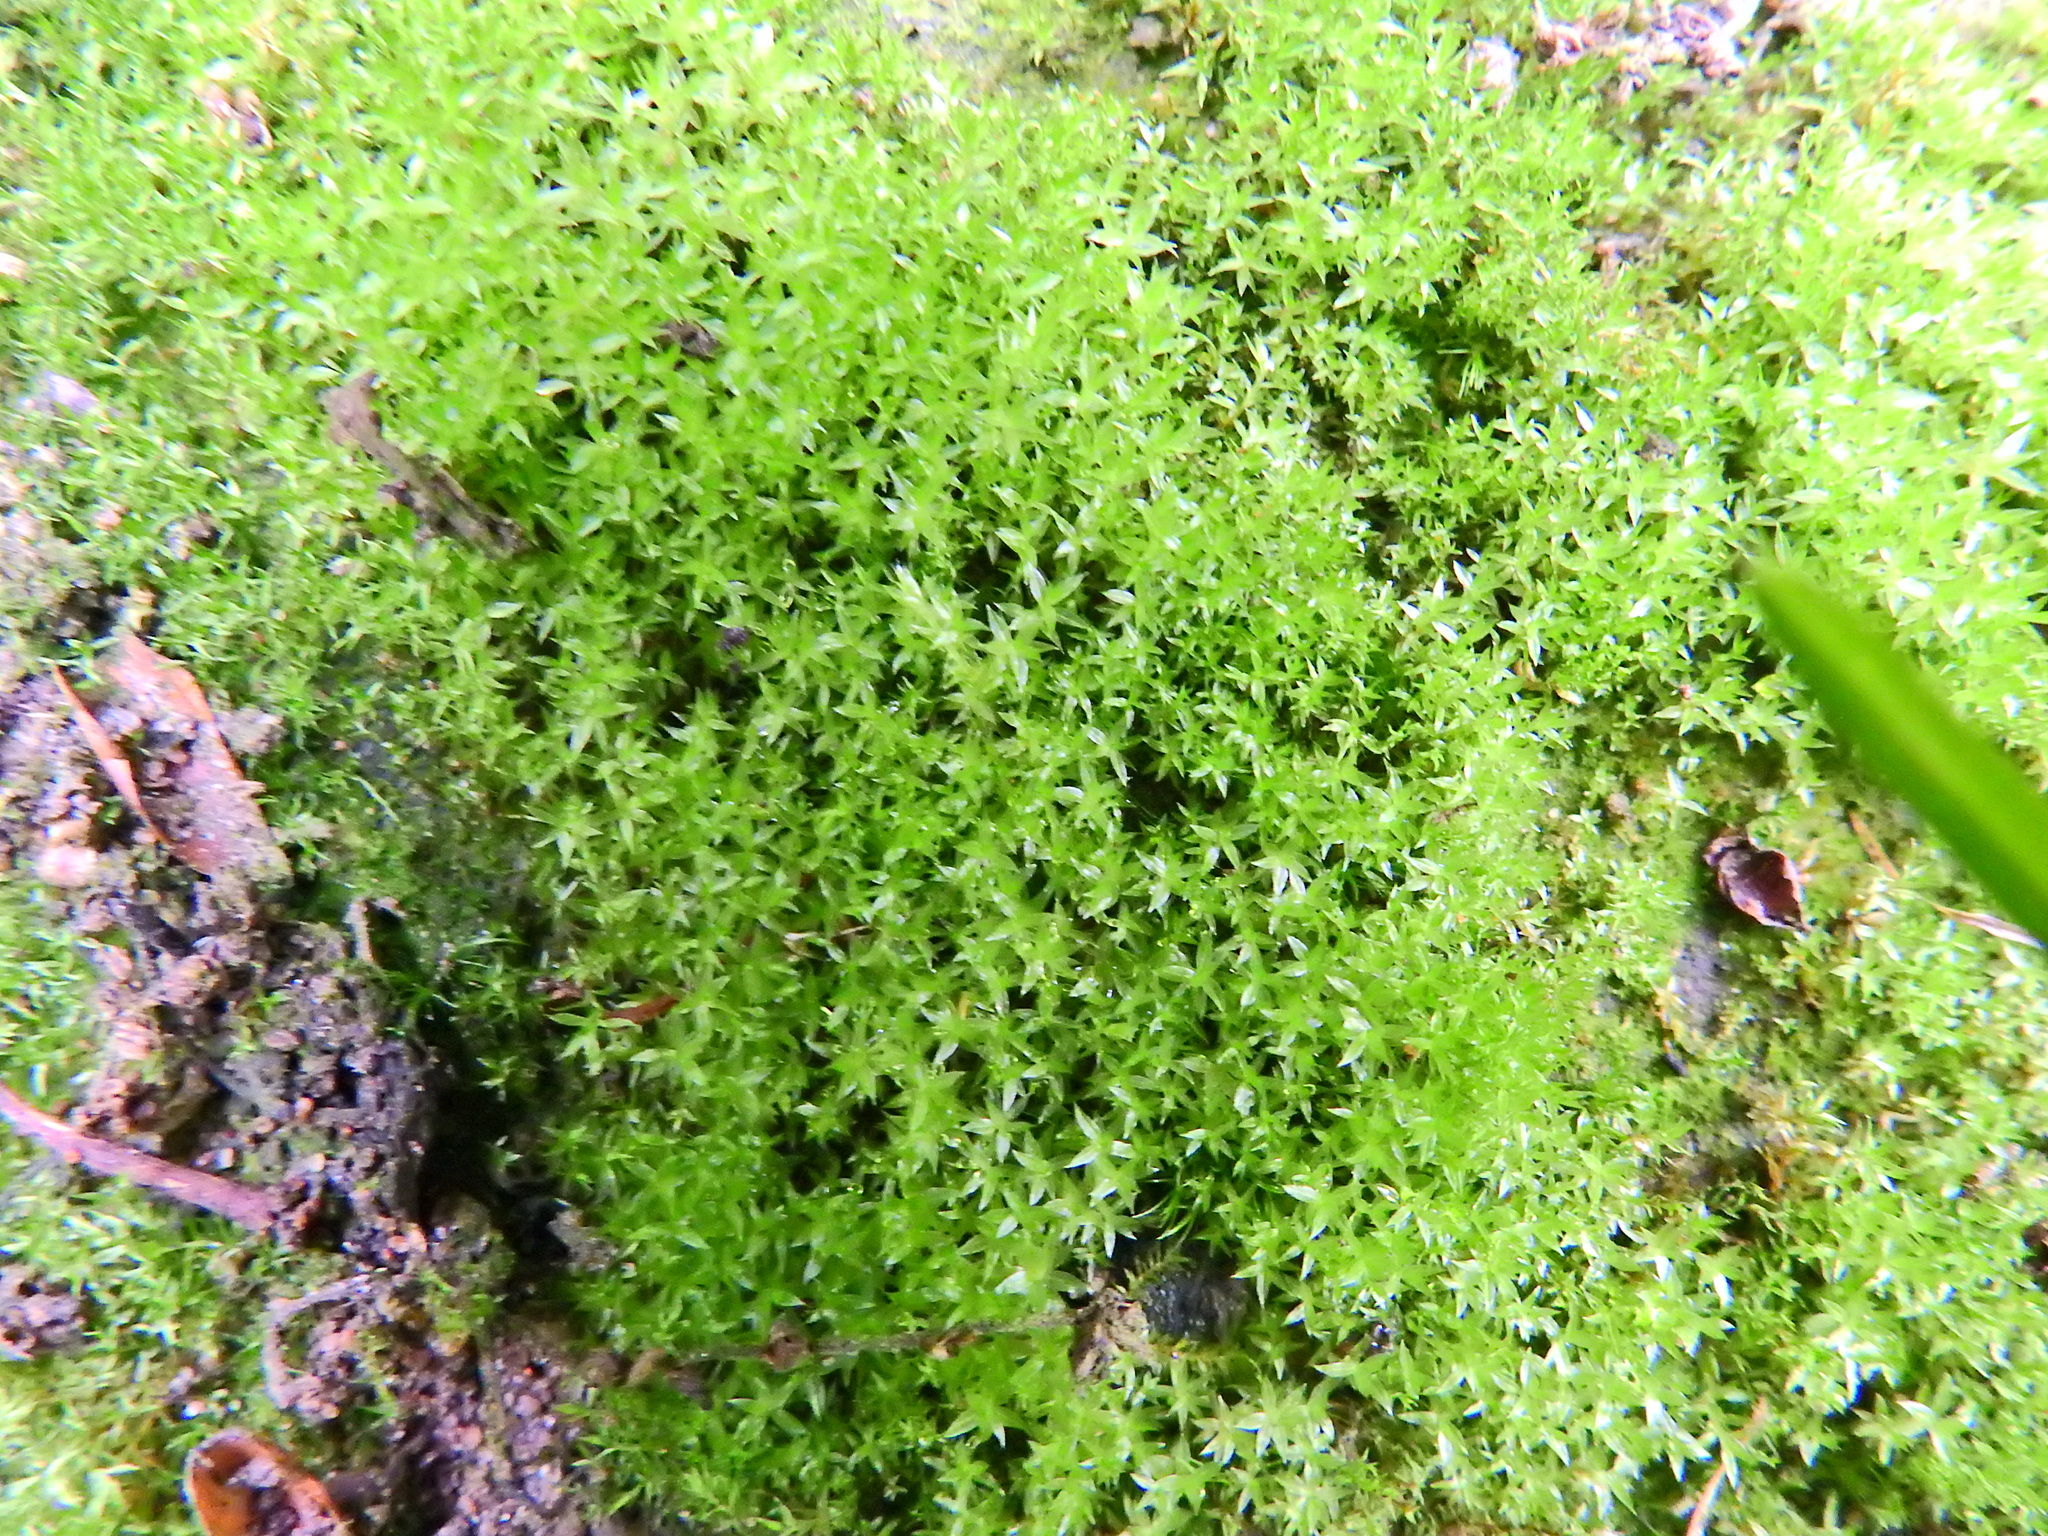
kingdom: Plantae
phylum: Bryophyta
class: Bryopsida
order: Bryales
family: Bryaceae
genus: Rosulabryum
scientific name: Rosulabryum rubens
